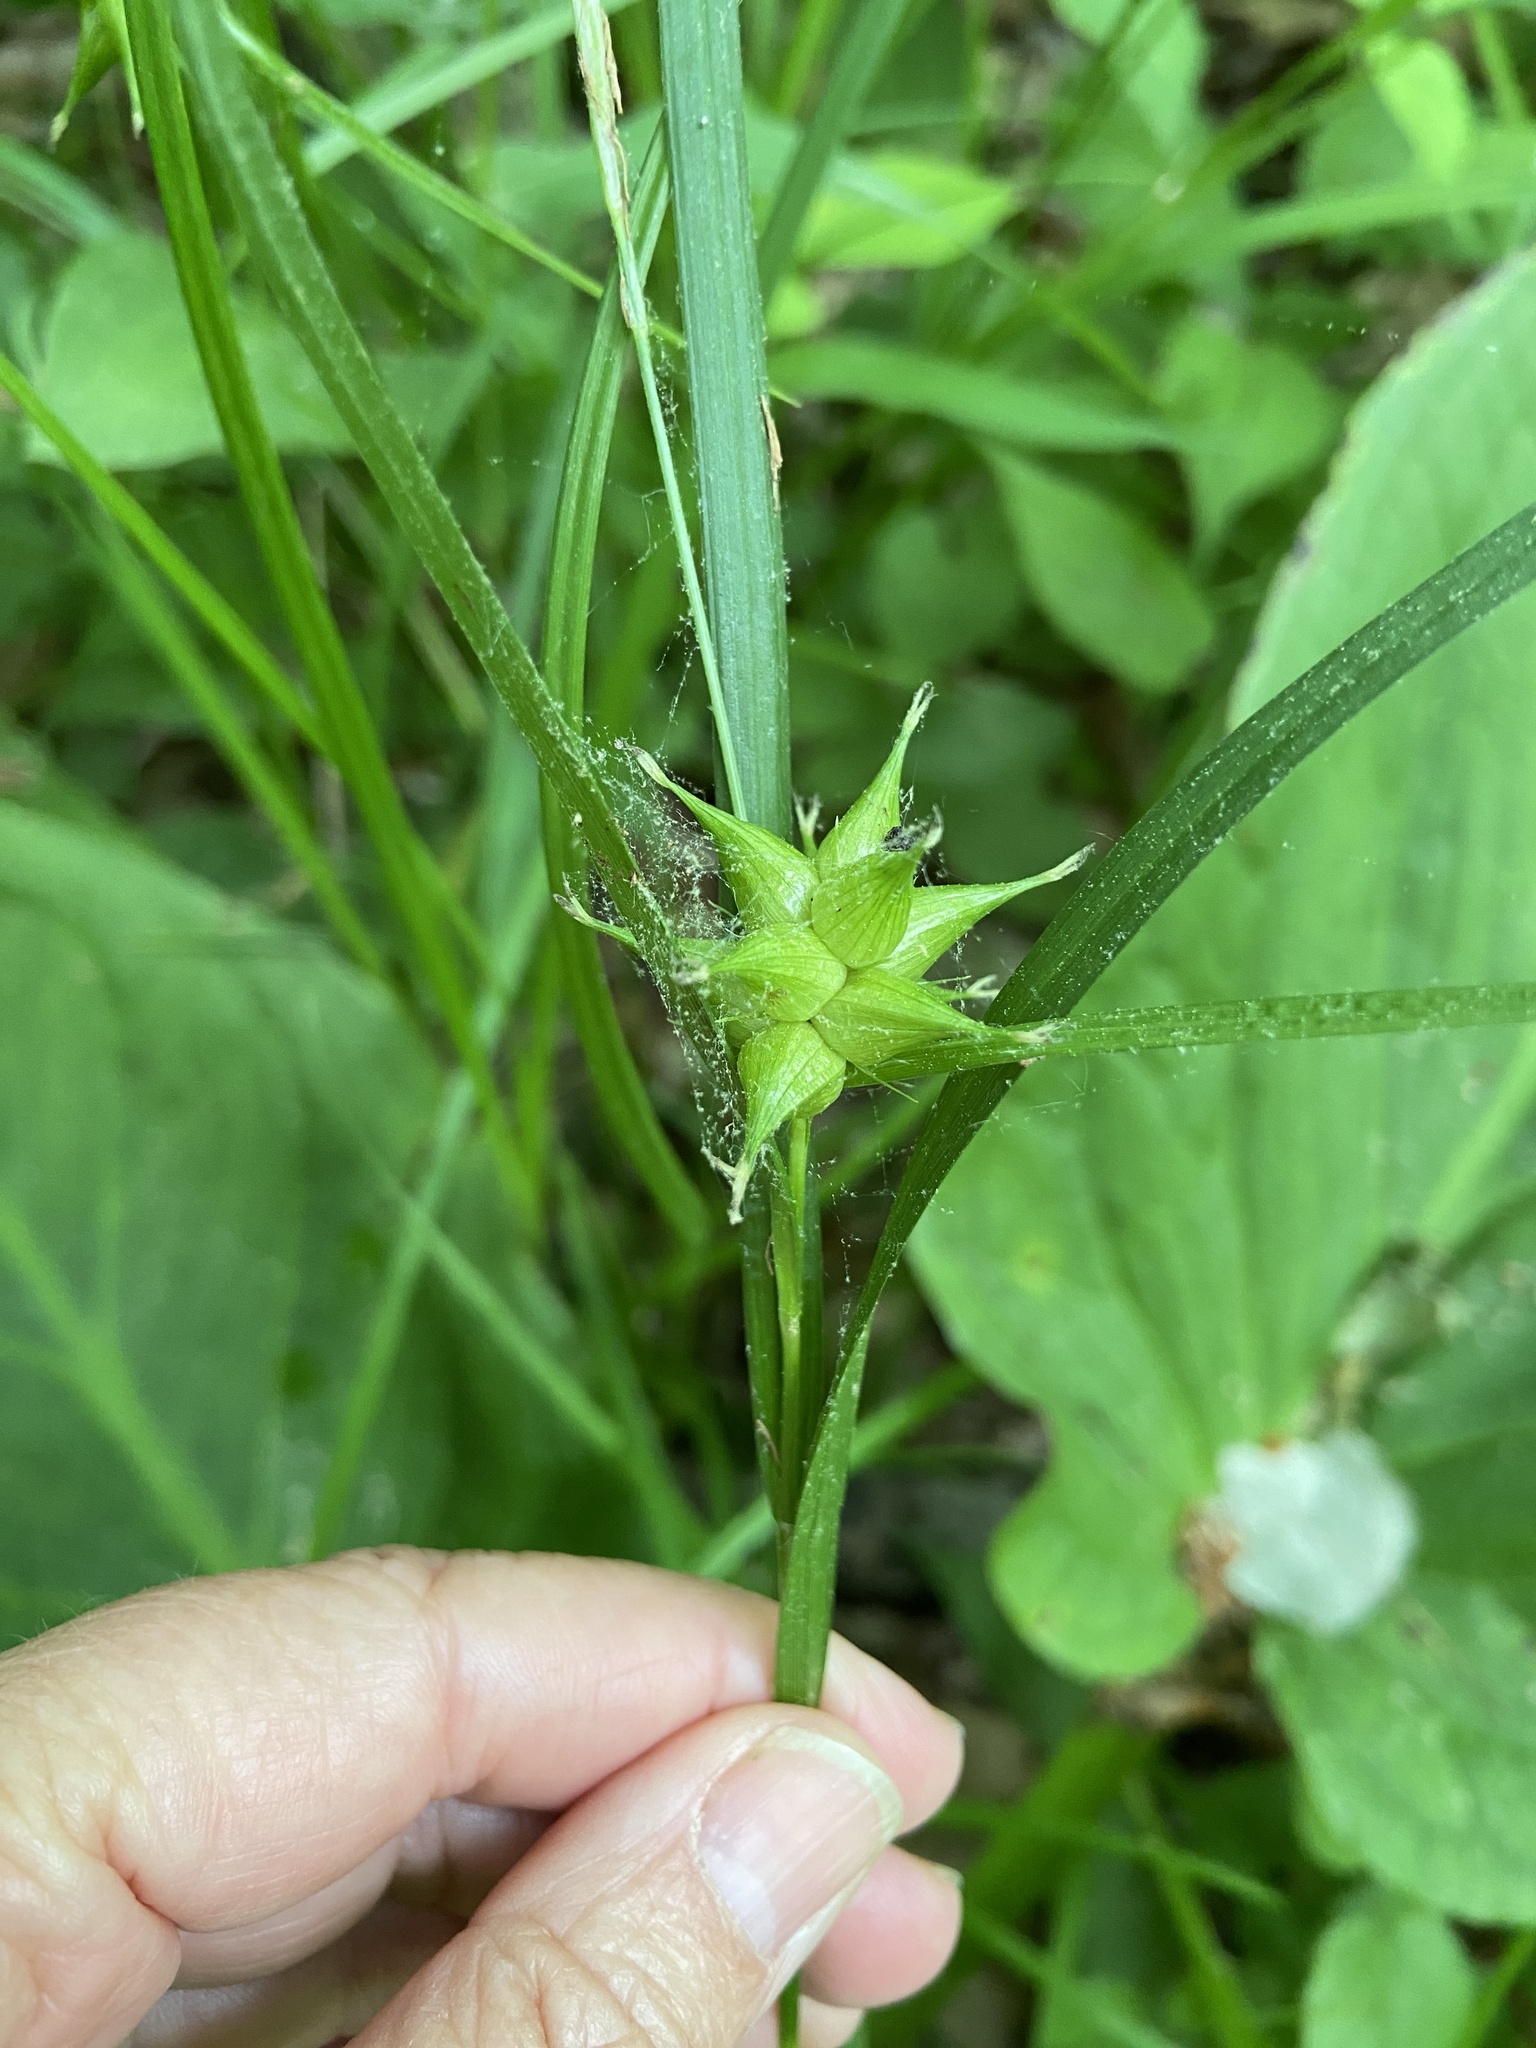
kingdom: Plantae
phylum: Tracheophyta
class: Liliopsida
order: Poales
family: Cyperaceae
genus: Carex
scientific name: Carex intumescens
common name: Greater bladder sedge
